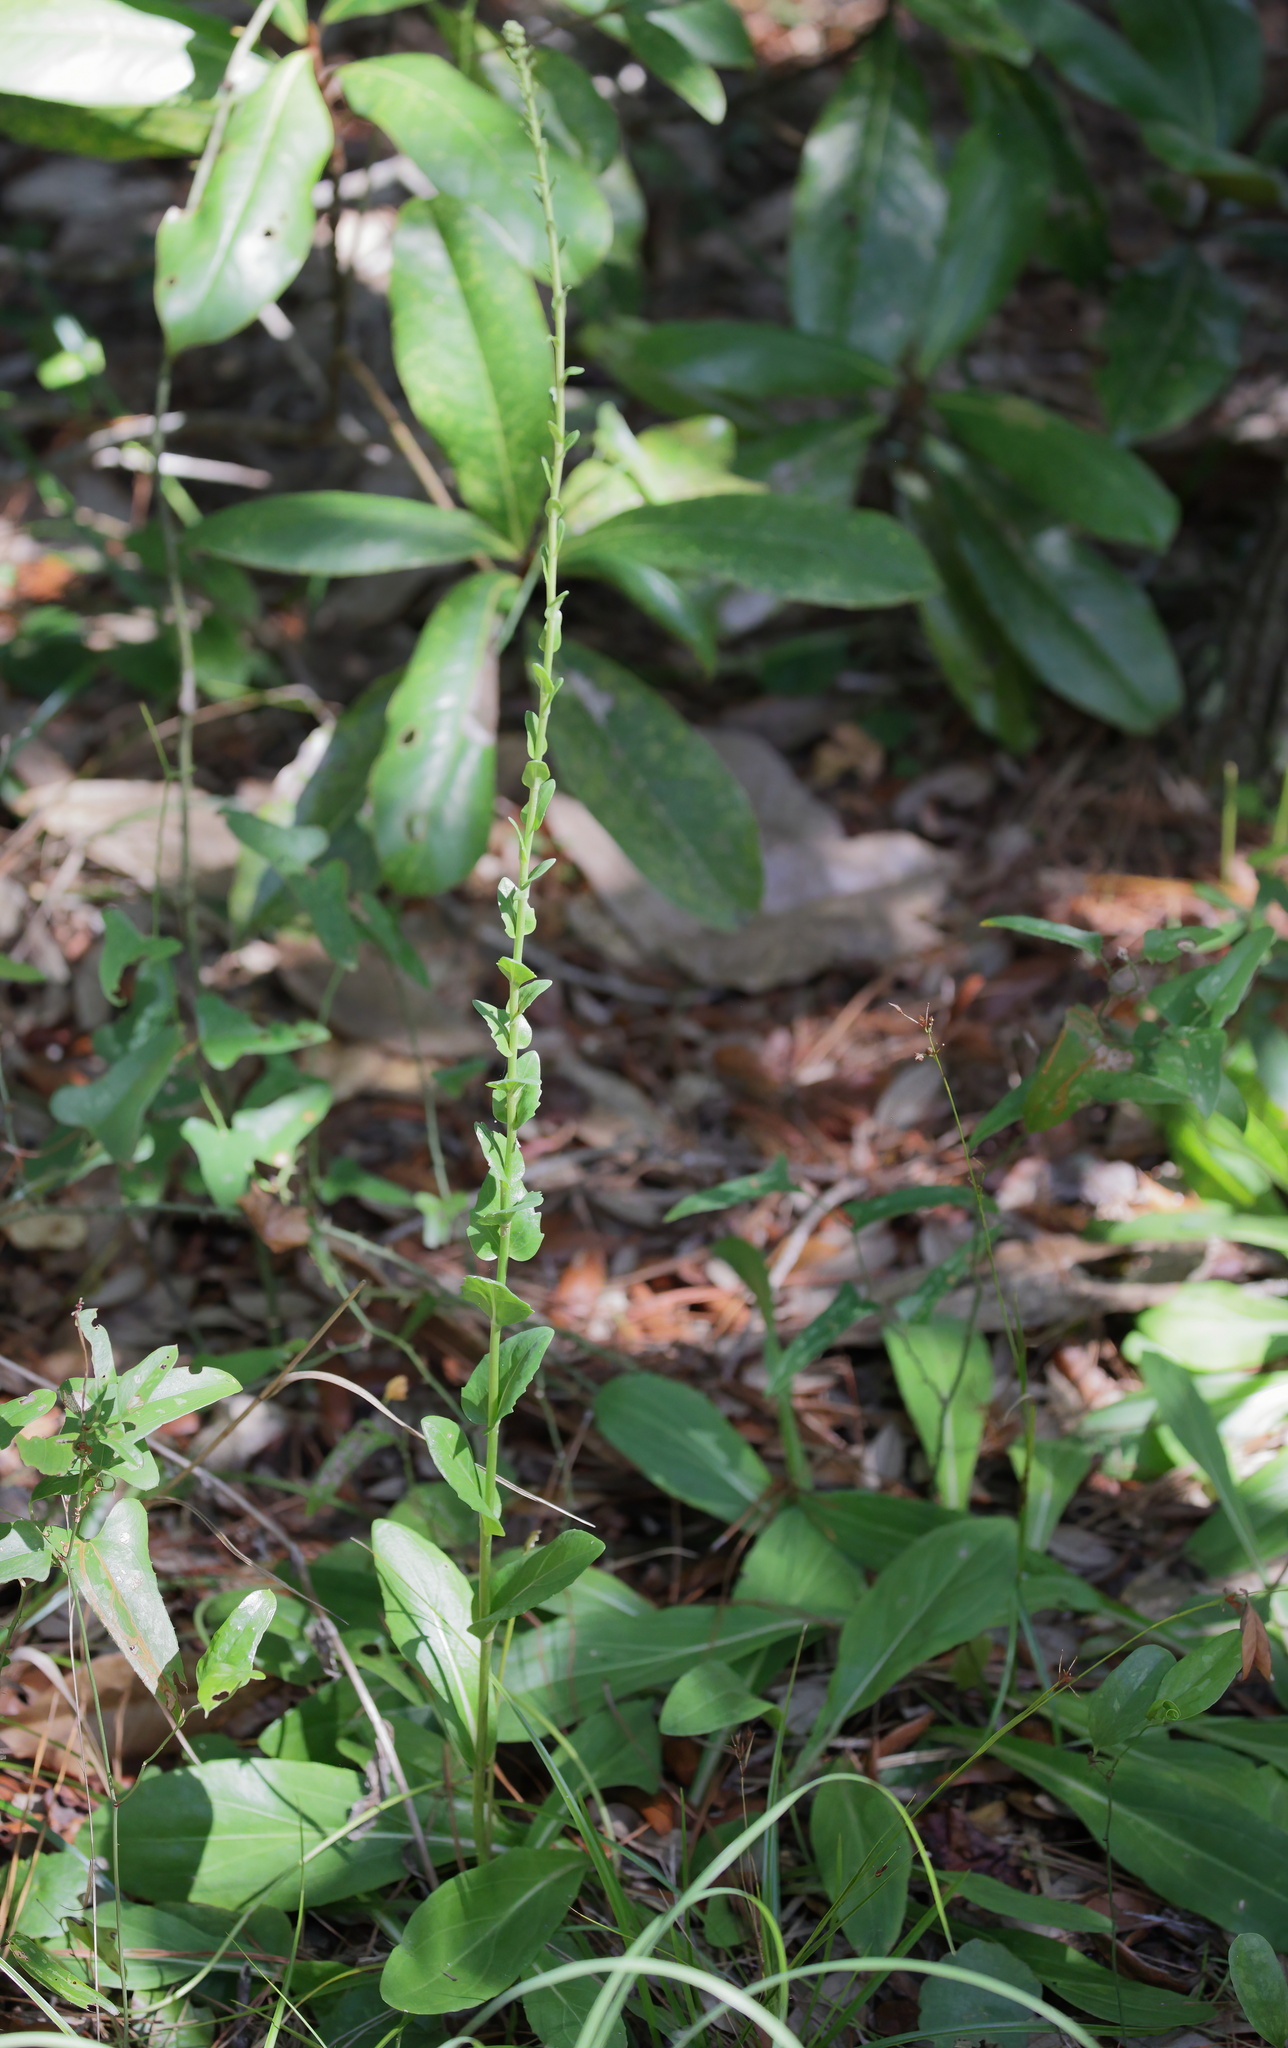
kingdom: Plantae
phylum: Tracheophyta
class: Magnoliopsida
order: Asterales
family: Asteraceae
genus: Carphephorus
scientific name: Carphephorus odoratissimus
